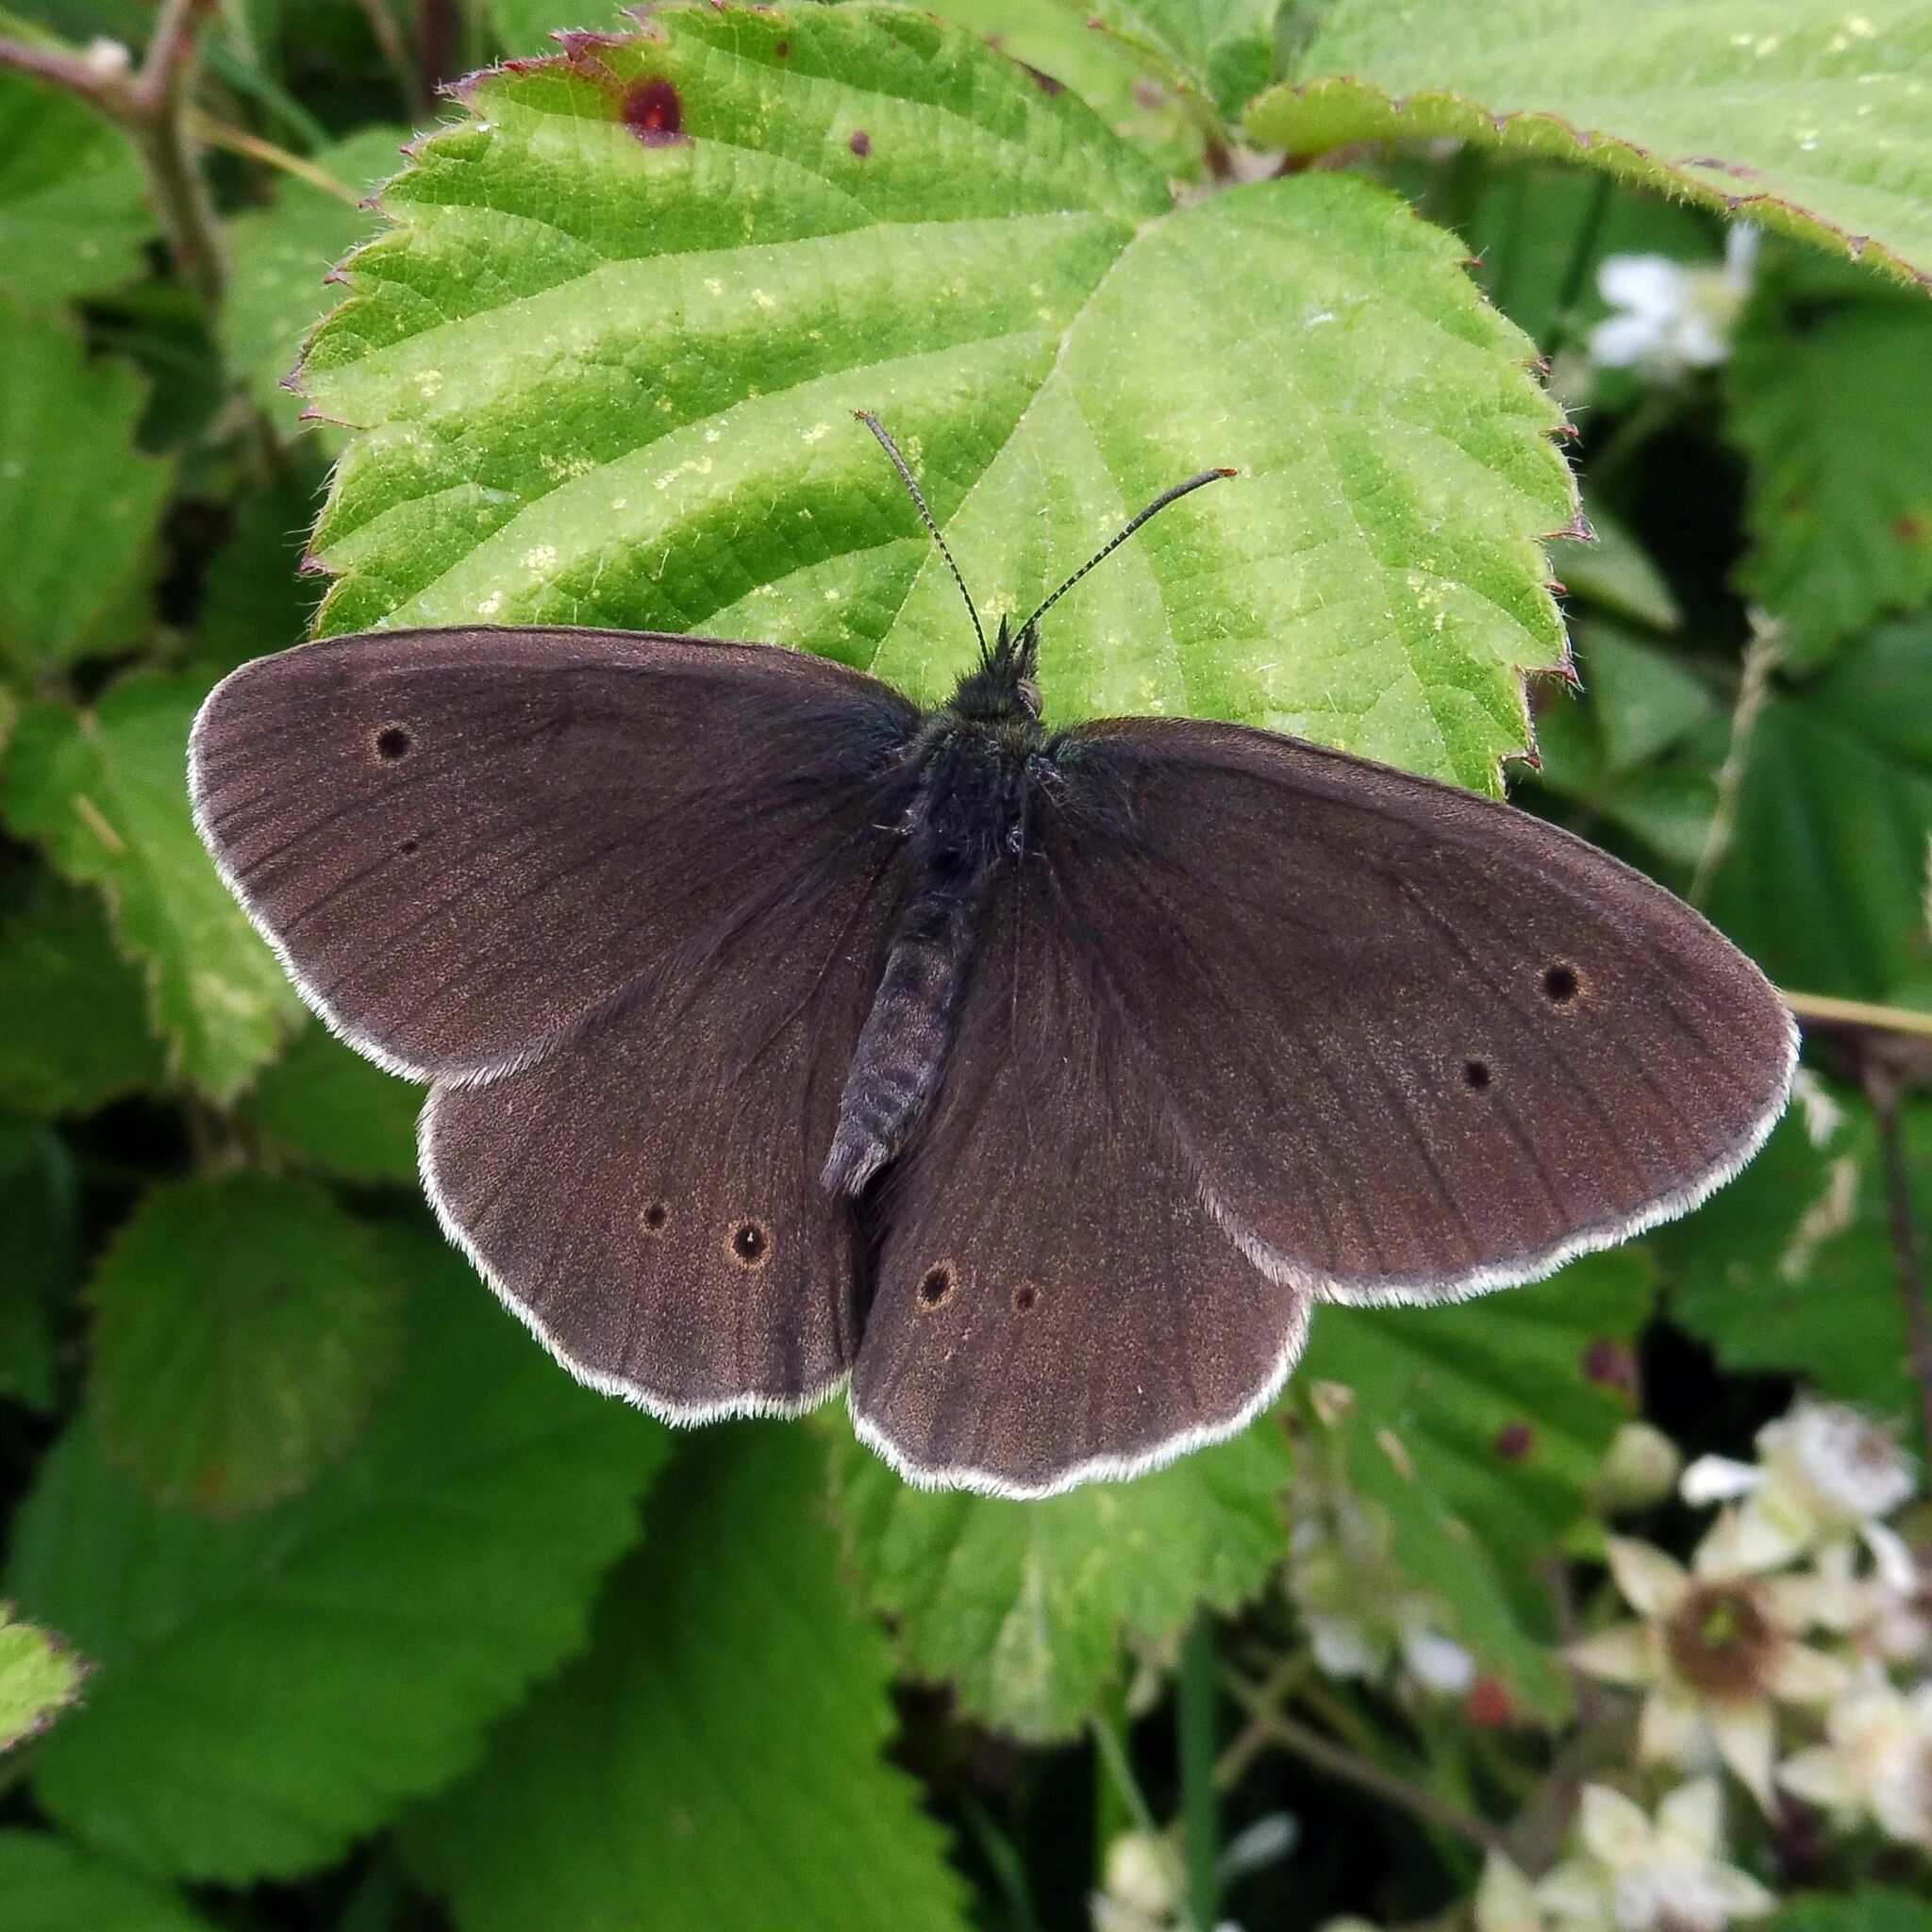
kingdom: Animalia
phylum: Arthropoda
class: Insecta
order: Lepidoptera
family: Nymphalidae
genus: Aphantopus
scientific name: Aphantopus hyperantus
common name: Ringlet
